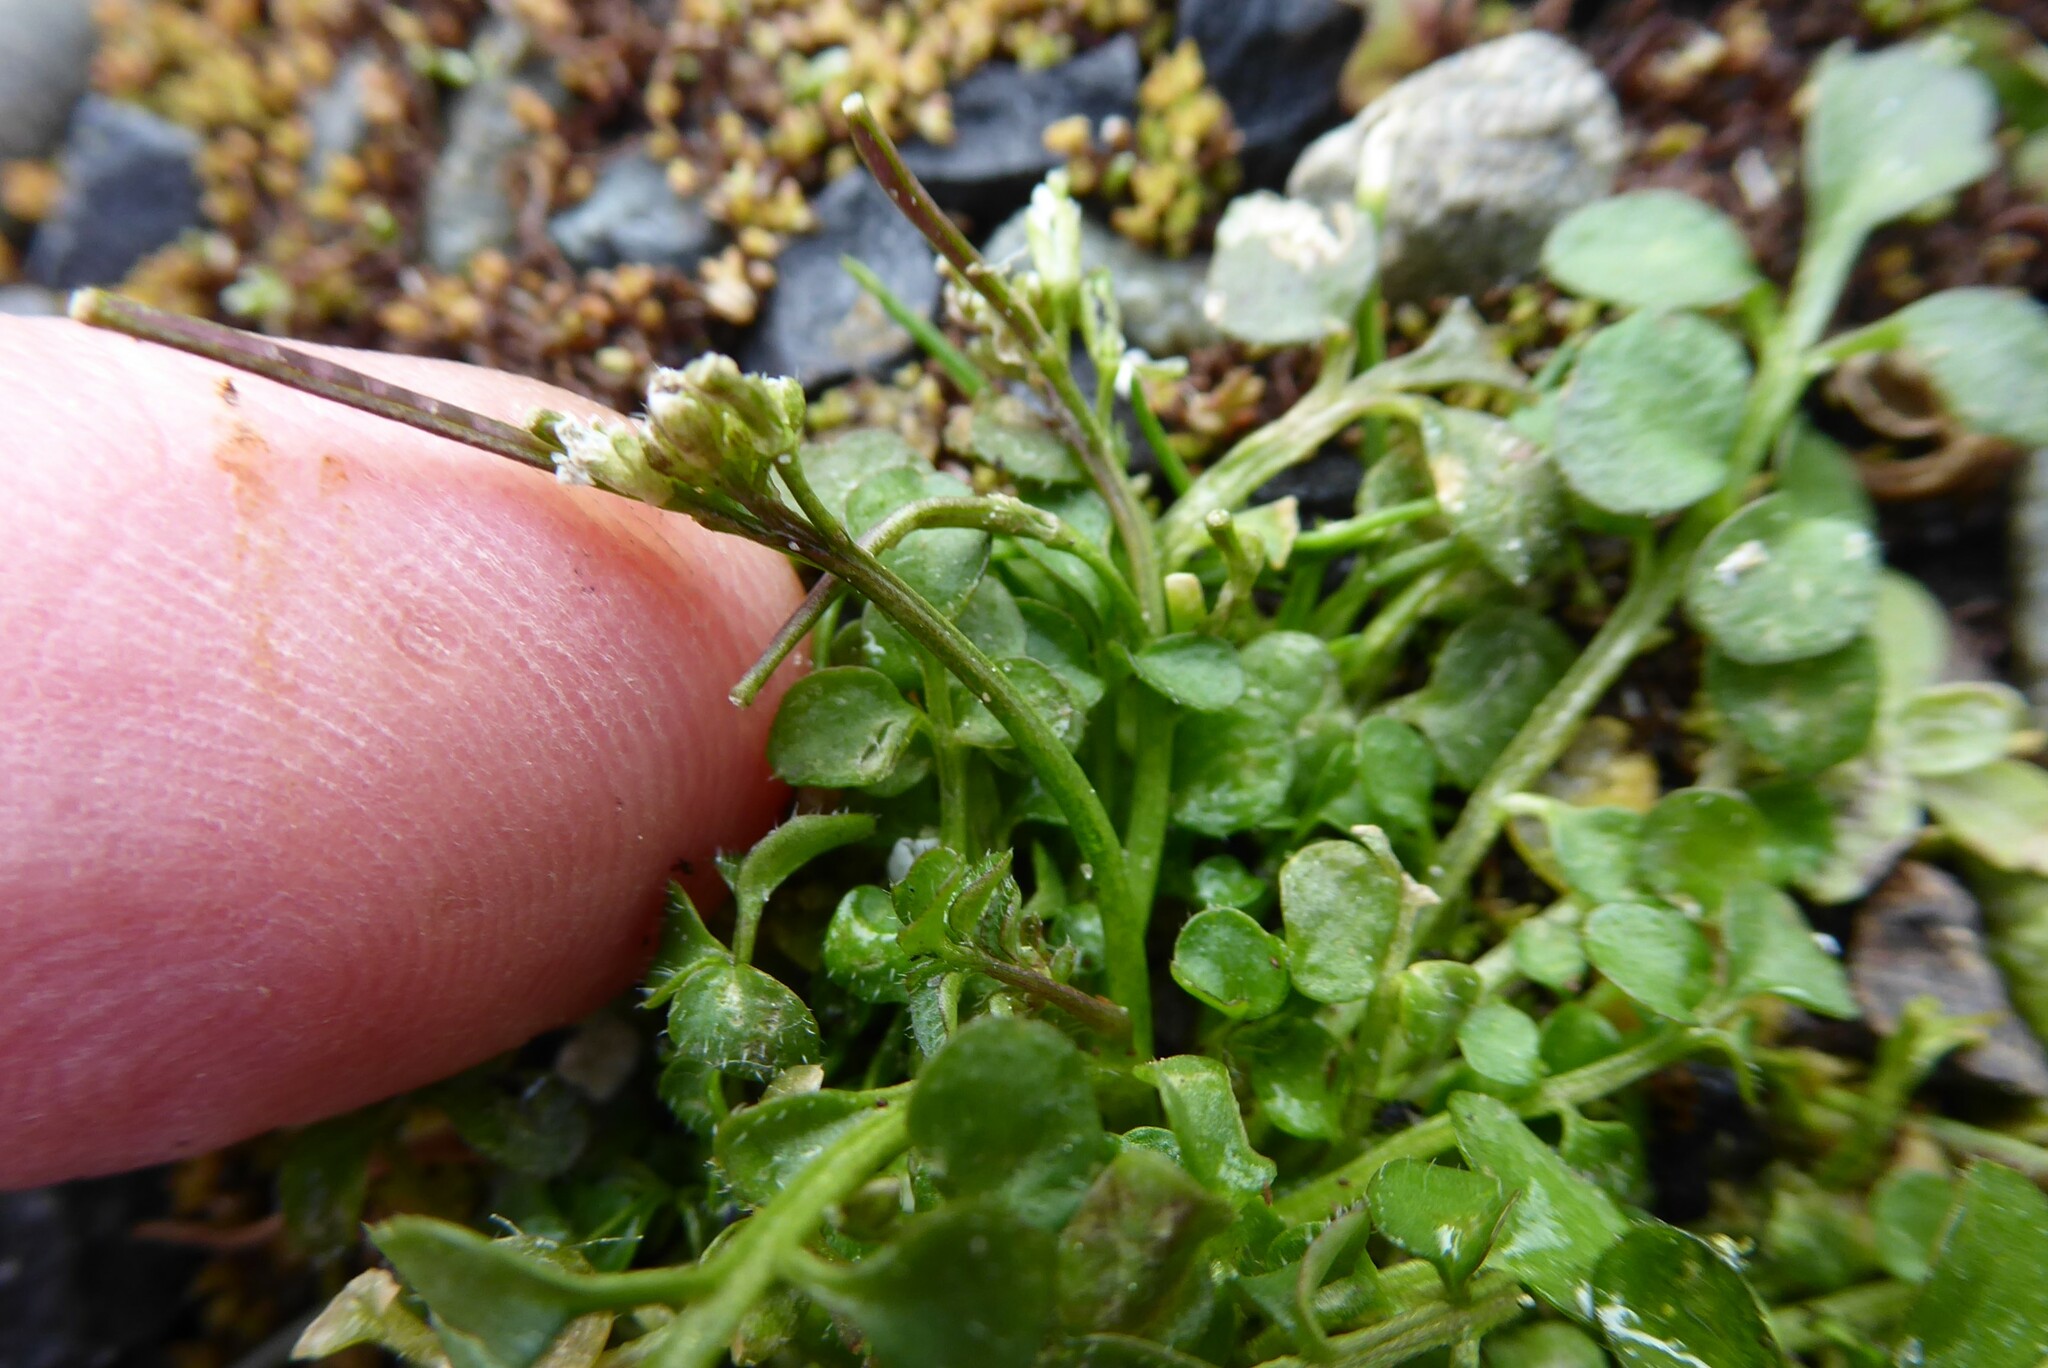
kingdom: Plantae
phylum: Tracheophyta
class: Magnoliopsida
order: Brassicales
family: Brassicaceae
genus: Cardamine
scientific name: Cardamine hirsuta
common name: Hairy bittercress
